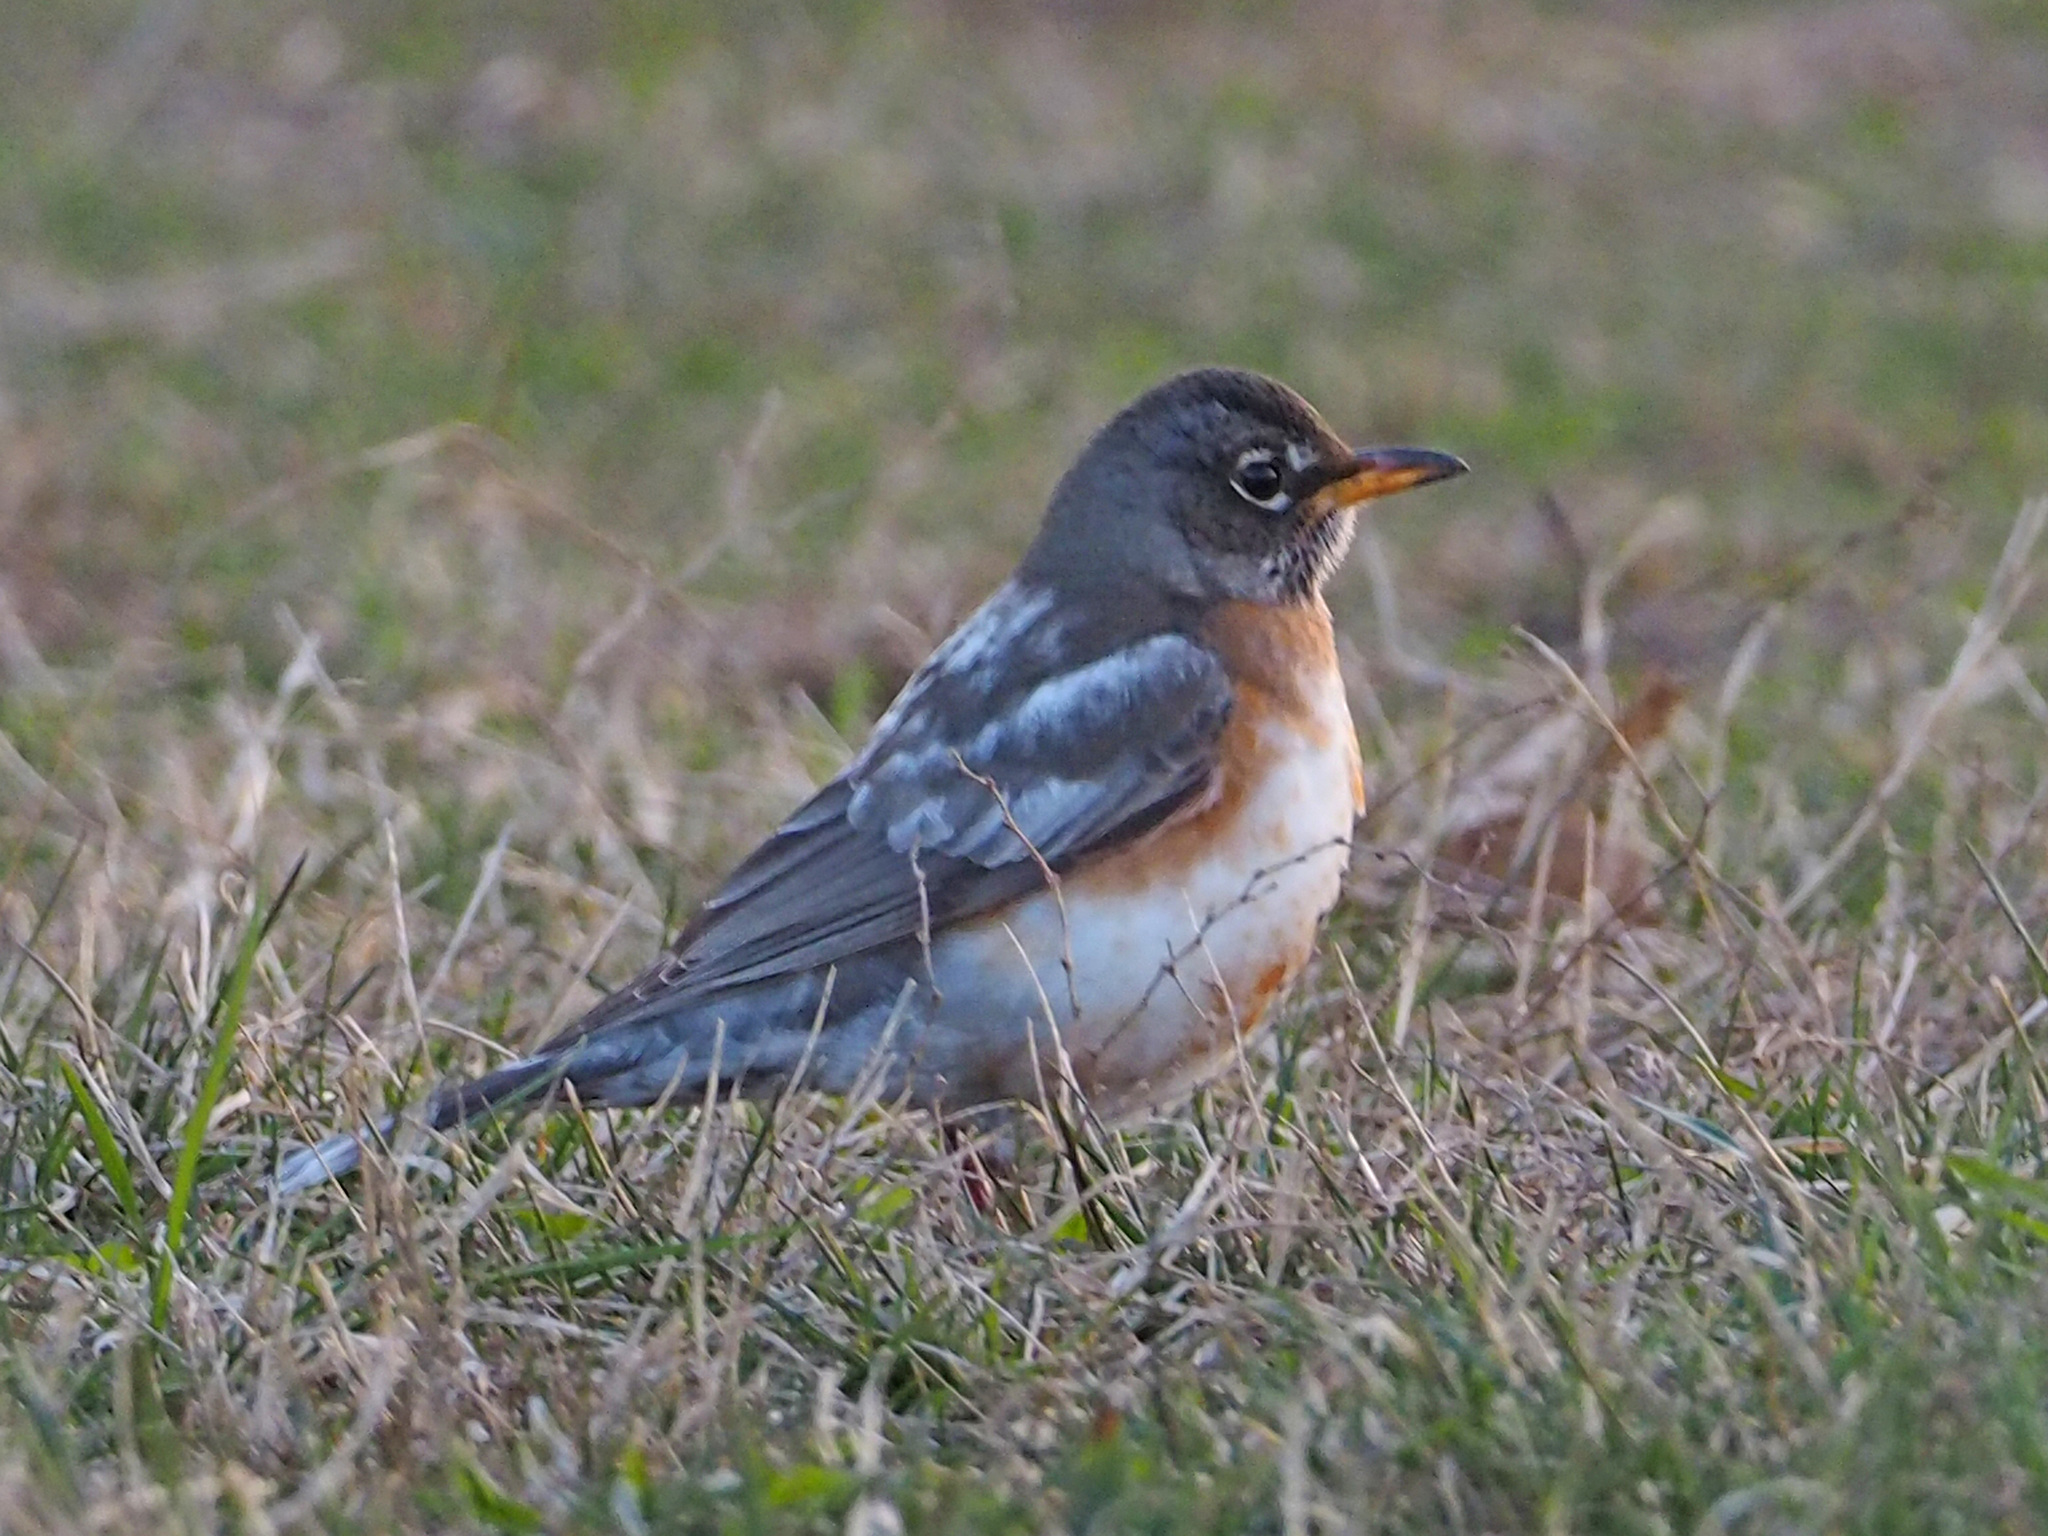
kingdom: Animalia
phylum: Chordata
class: Aves
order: Passeriformes
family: Turdidae
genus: Turdus
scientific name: Turdus migratorius
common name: American robin
